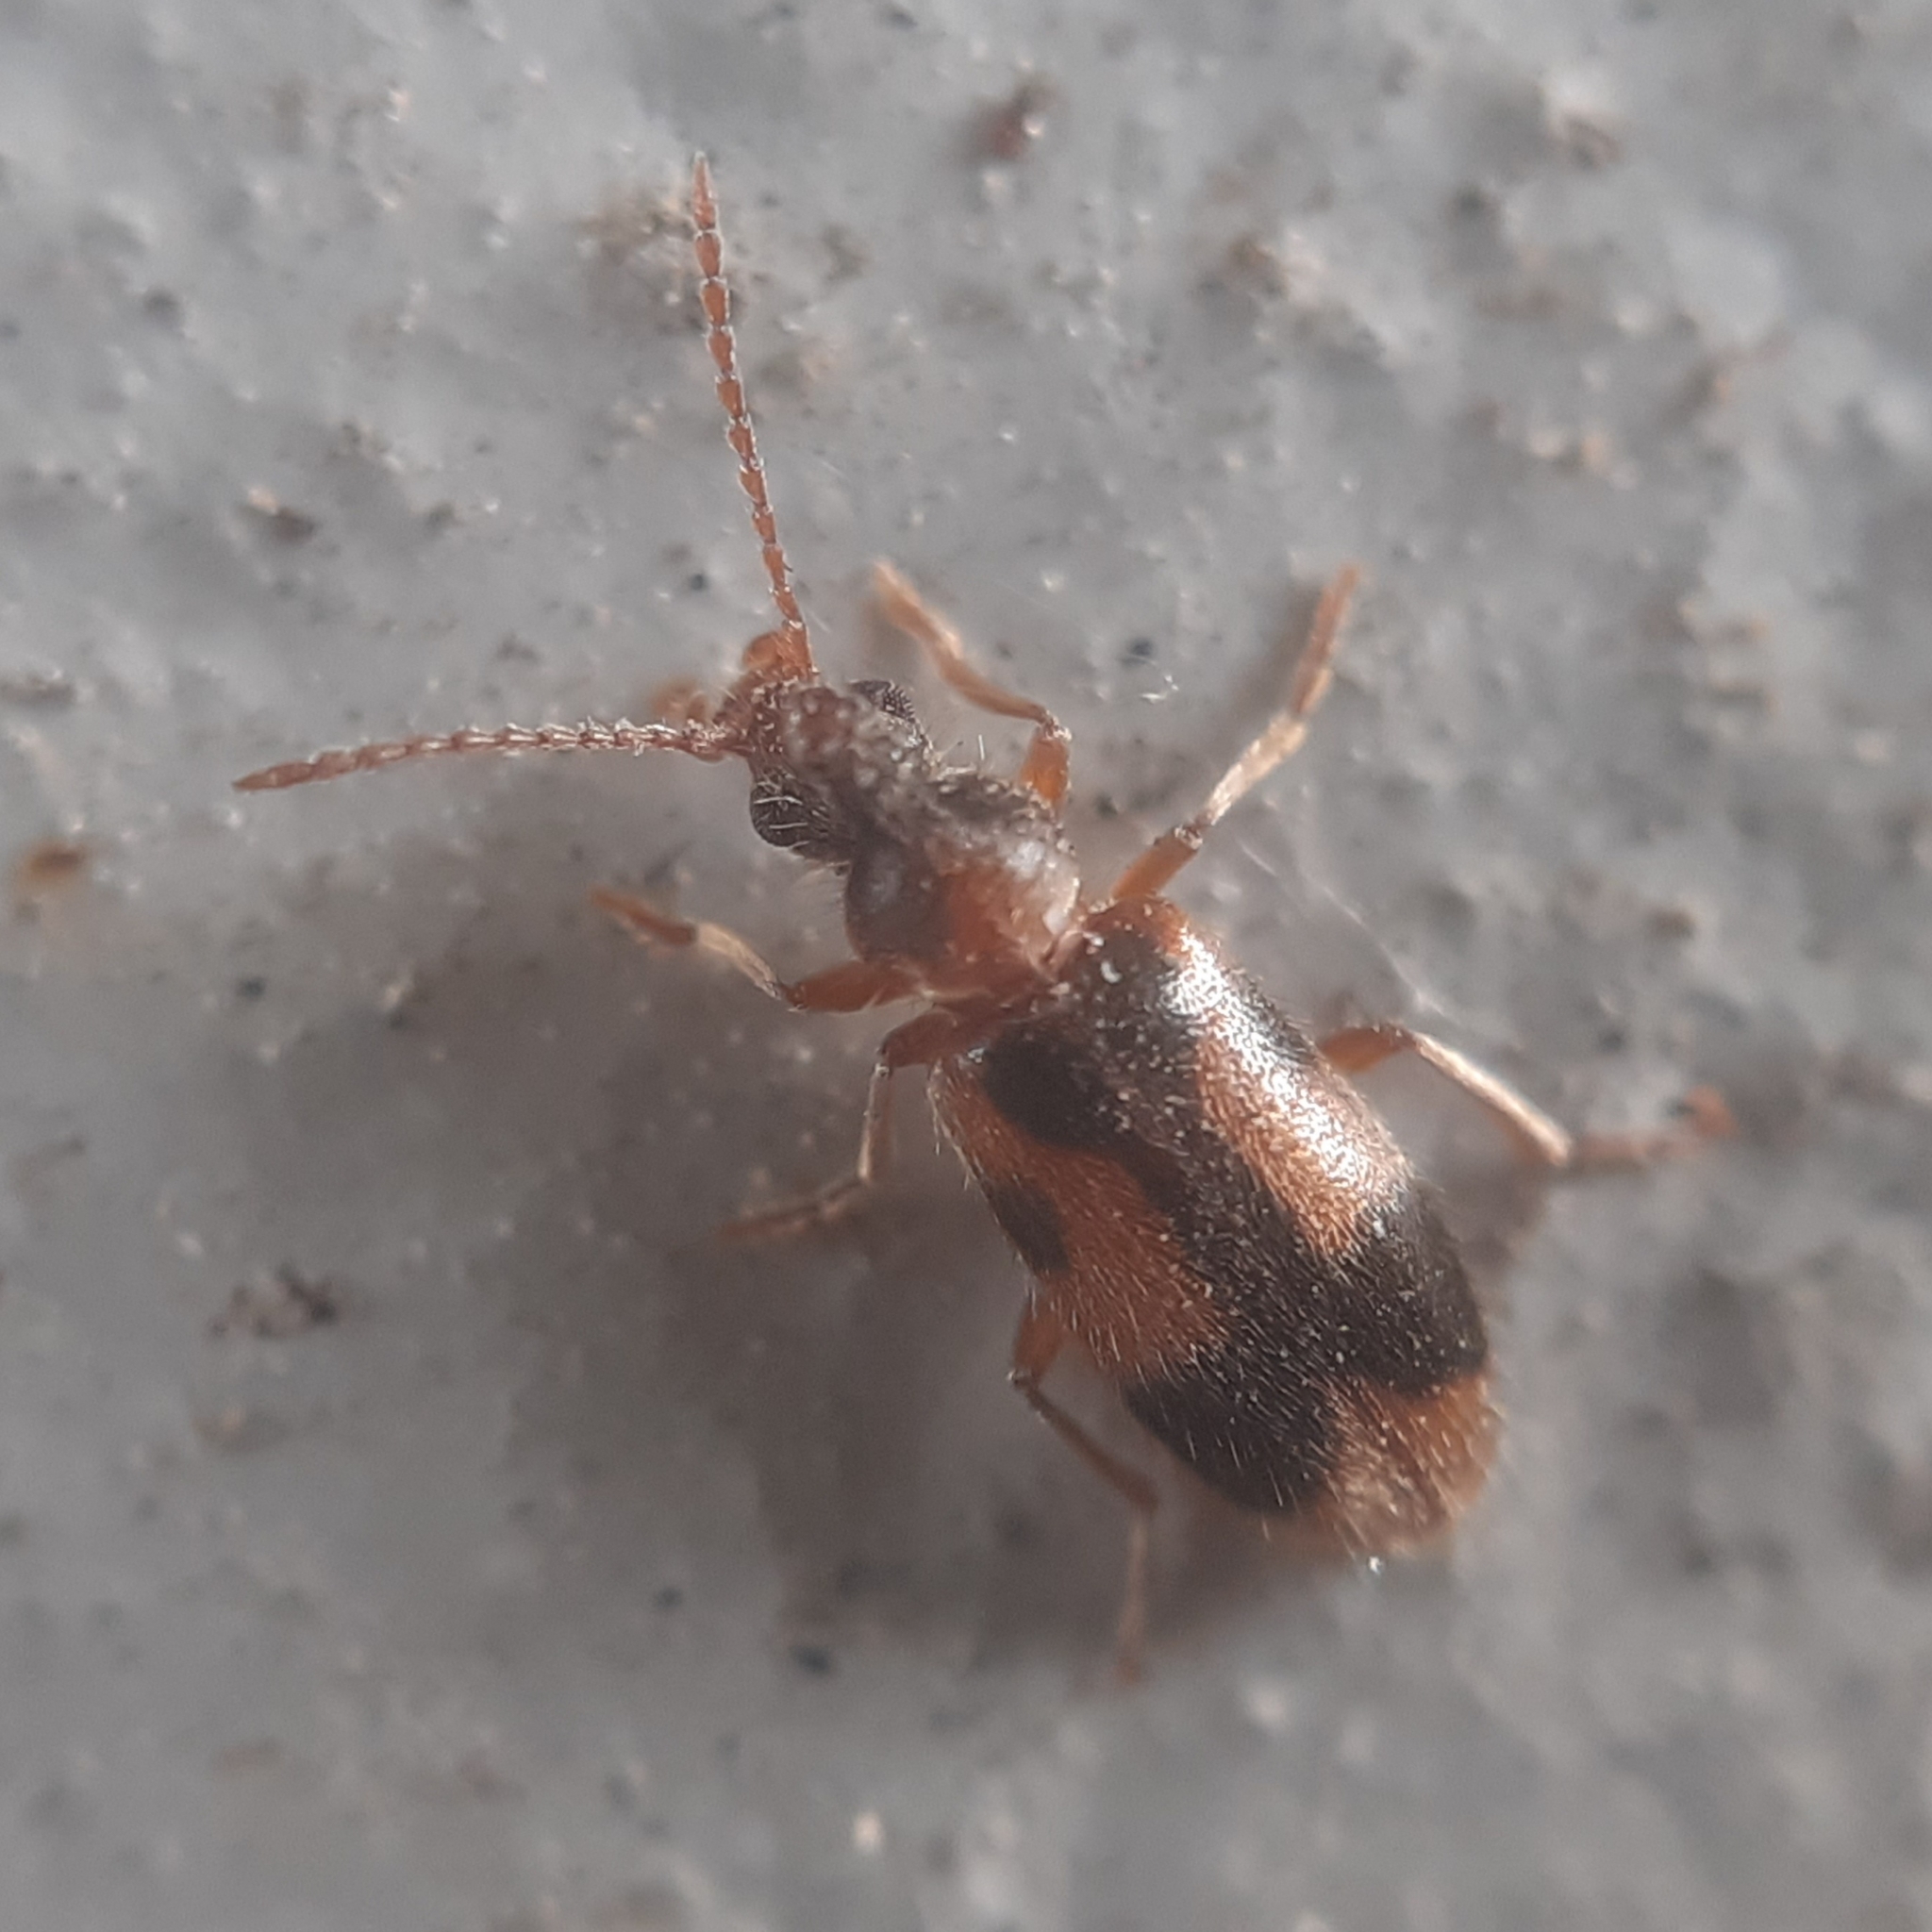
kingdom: Animalia
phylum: Arthropoda
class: Insecta
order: Coleoptera
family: Anthicidae
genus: Notoxus
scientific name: Notoxus monoceros
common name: Monoceros beetle
